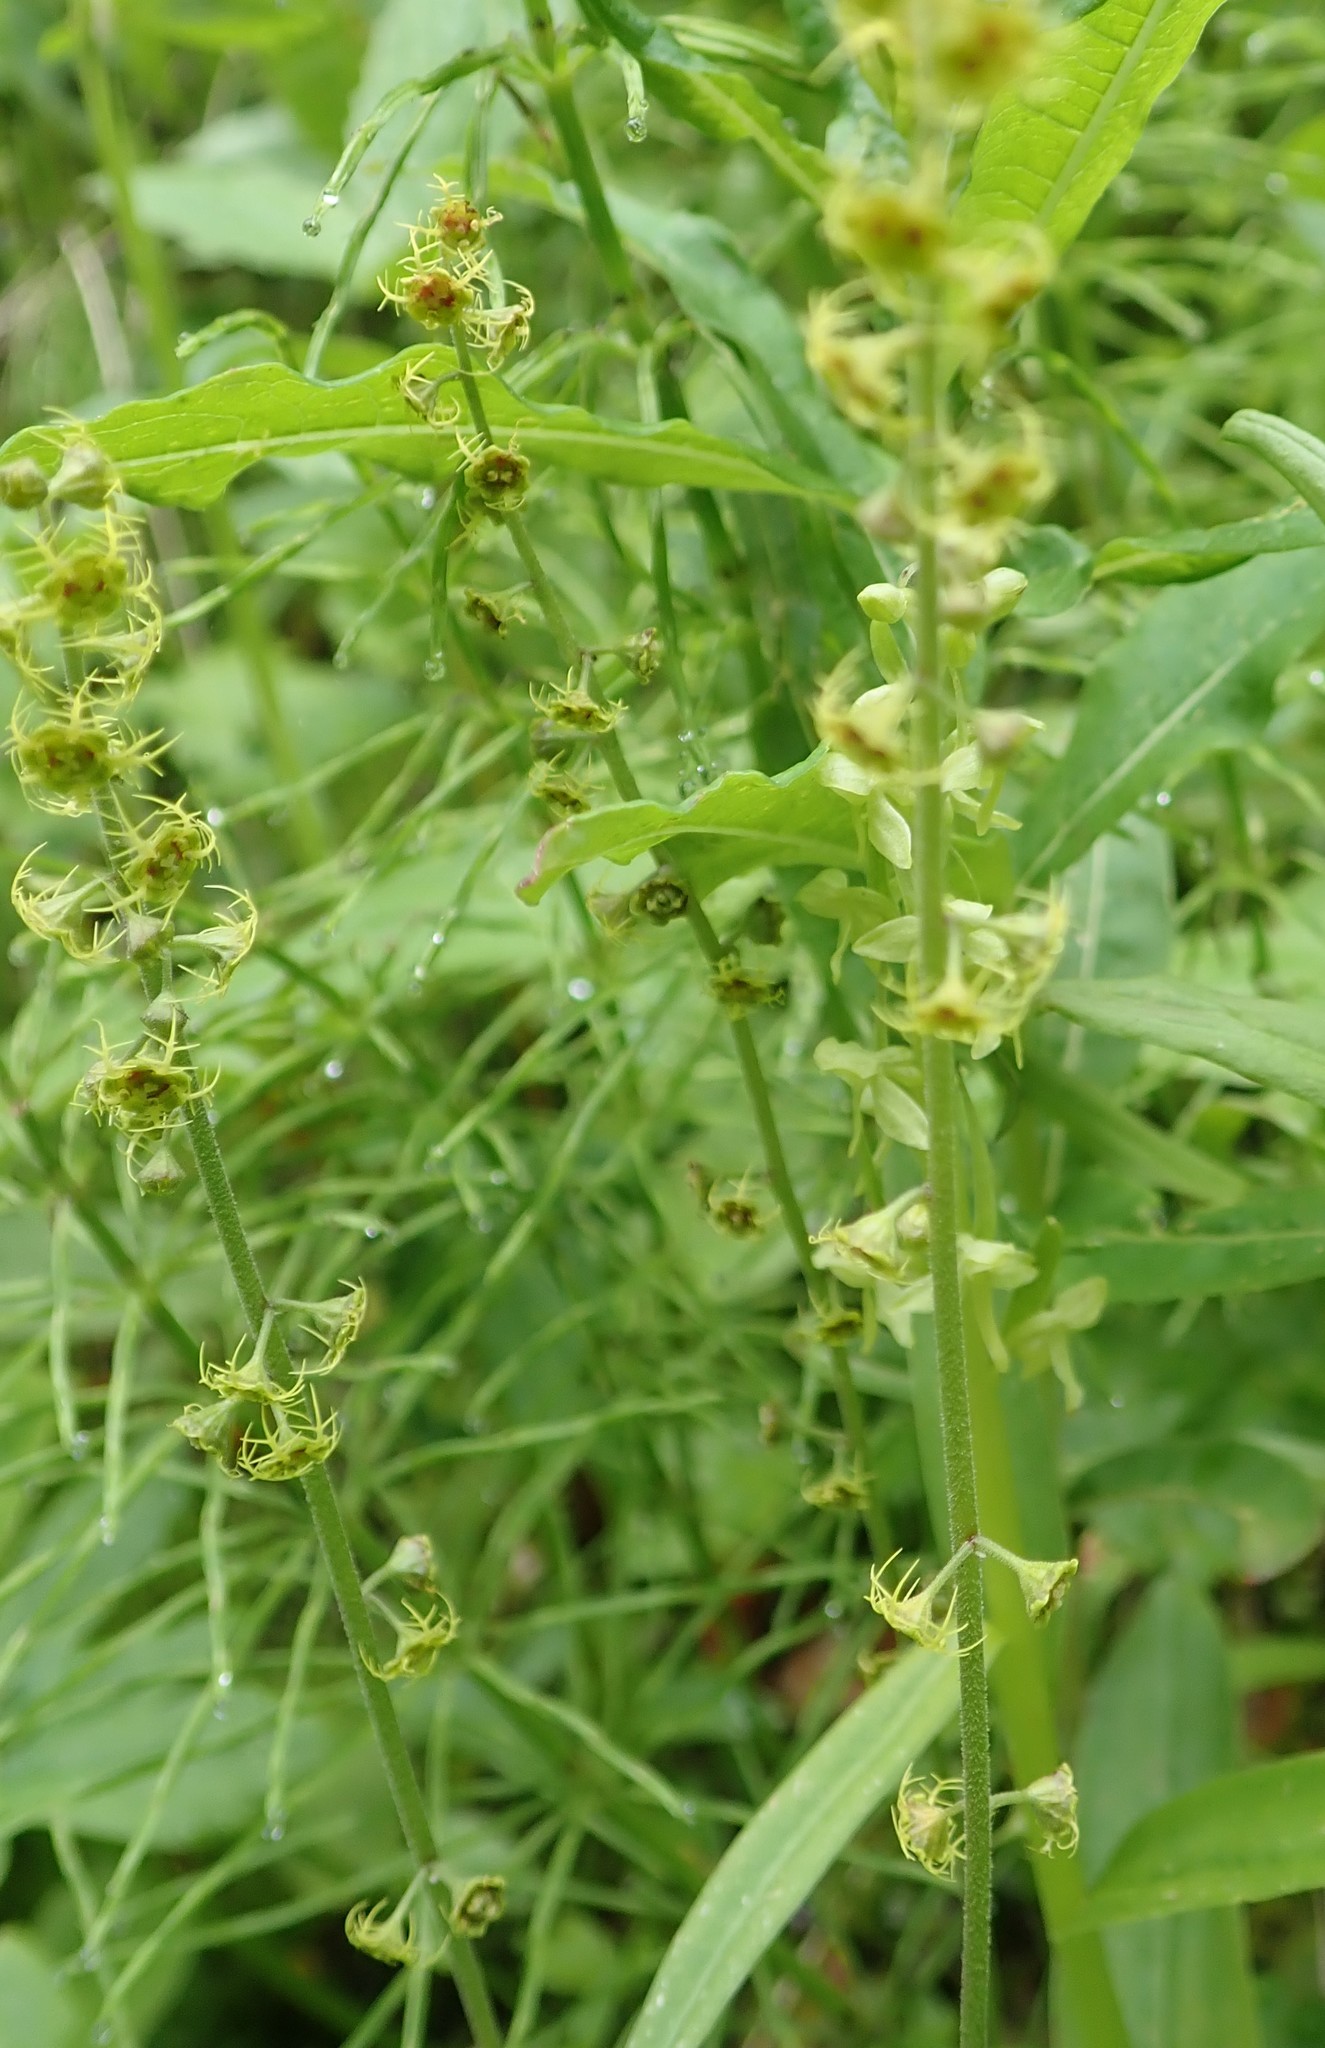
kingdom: Plantae
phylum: Tracheophyta
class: Magnoliopsida
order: Saxifragales
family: Saxifragaceae
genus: Pectiantia
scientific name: Pectiantia pentandra
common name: Alpine bishop's-cap
